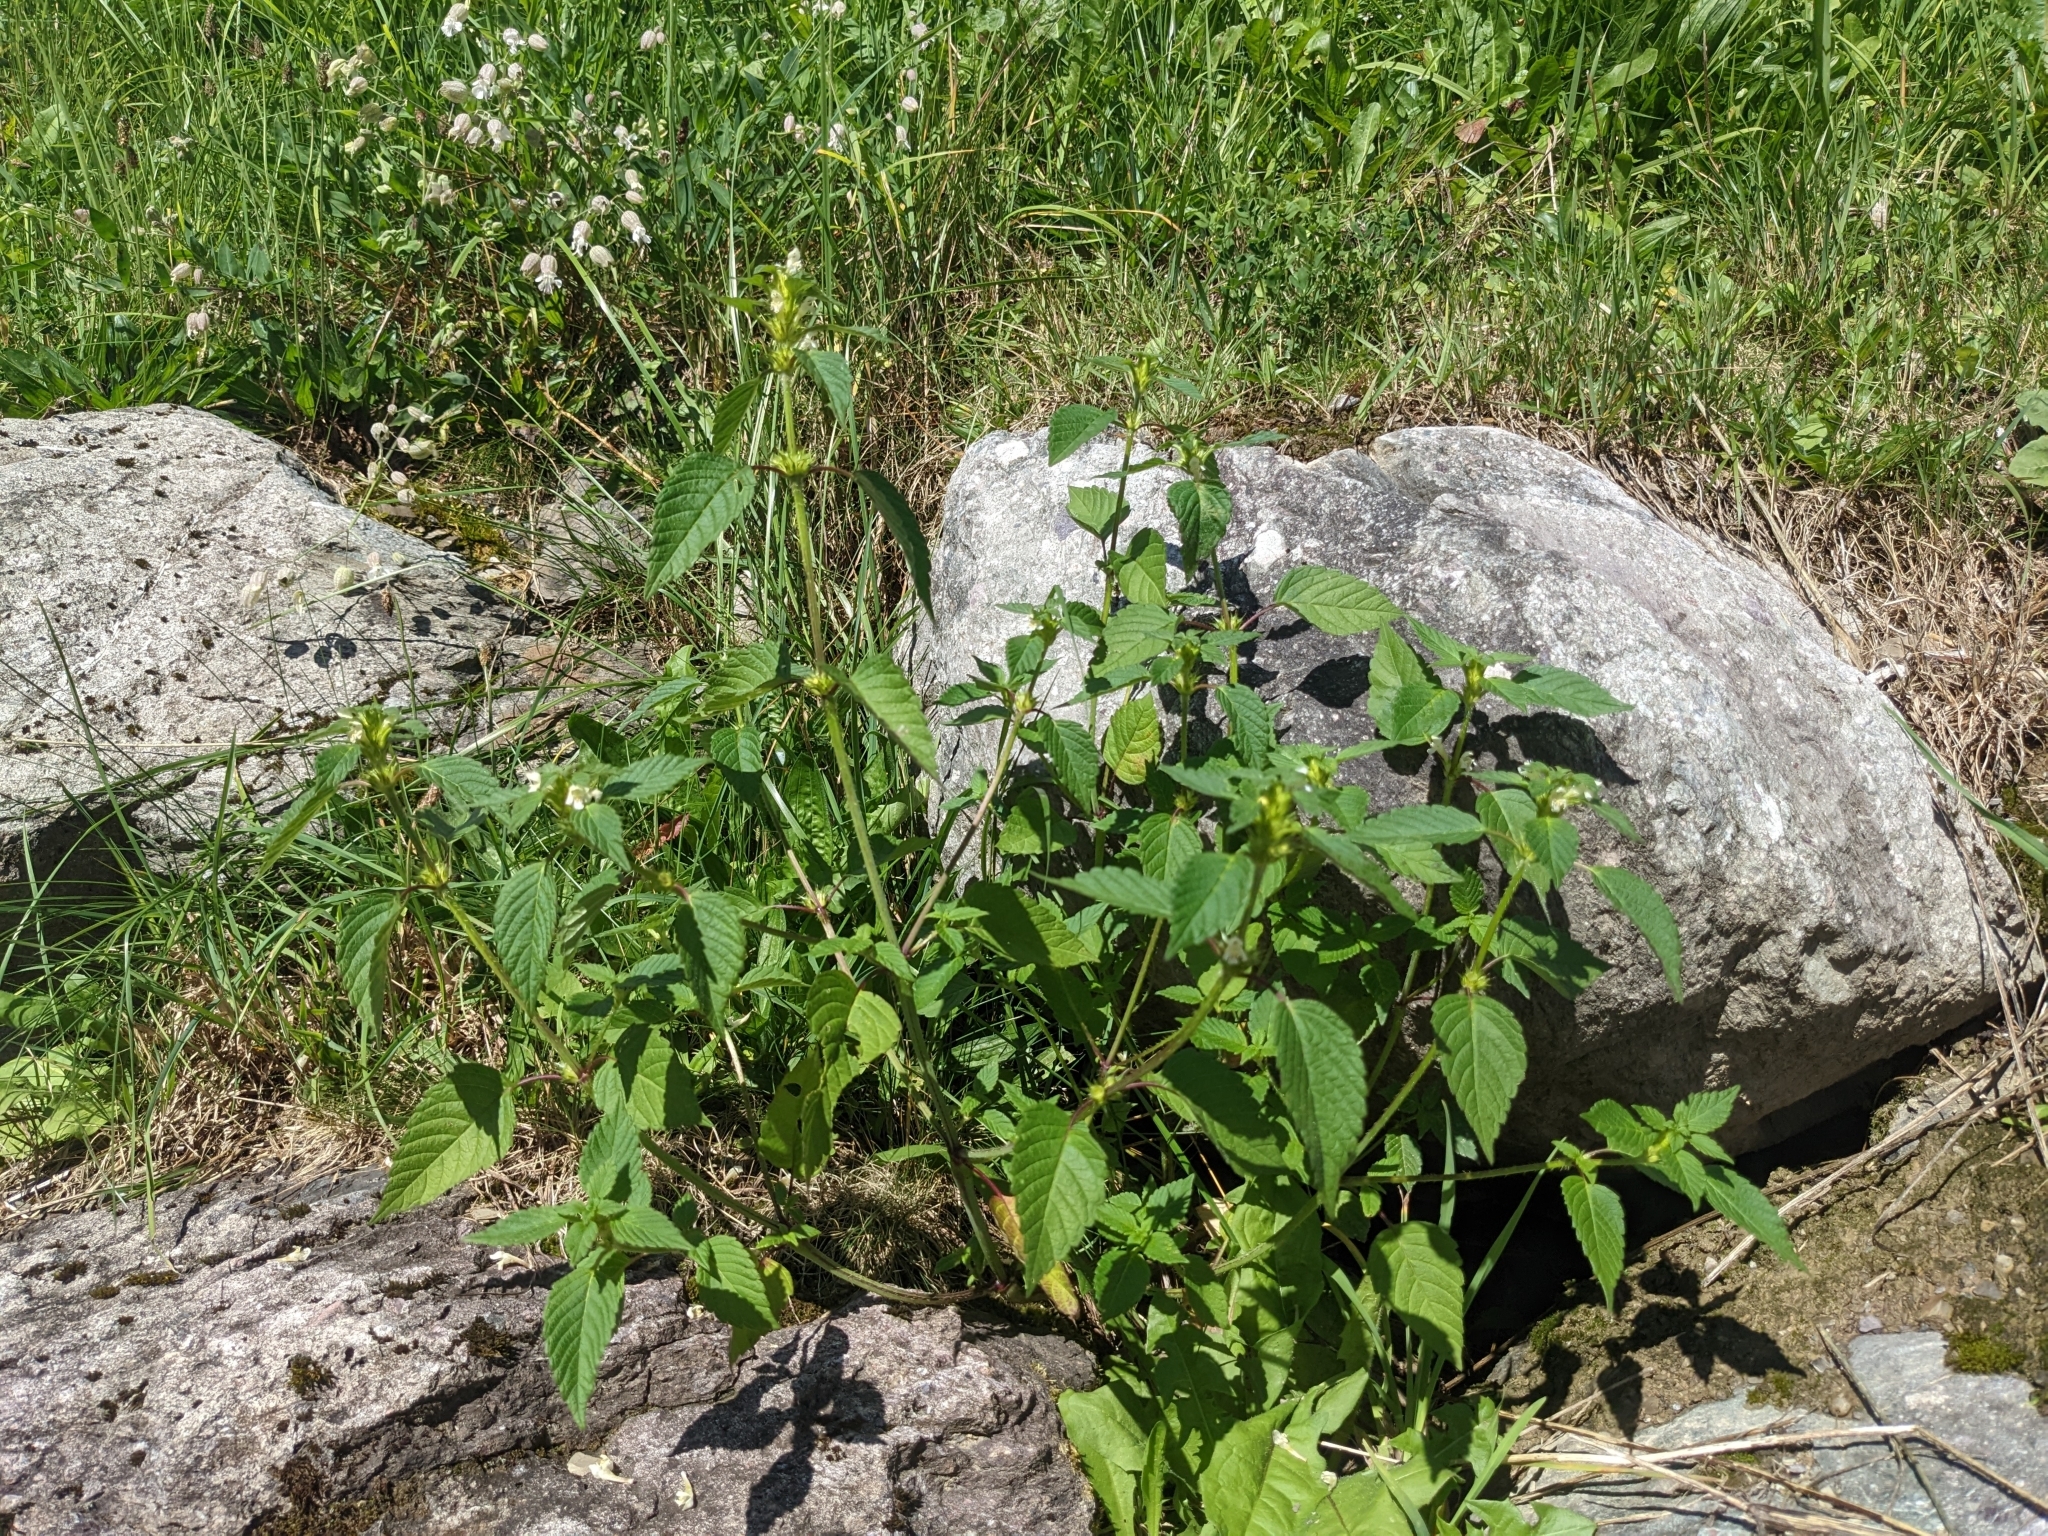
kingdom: Plantae
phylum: Tracheophyta
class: Magnoliopsida
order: Lamiales
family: Lamiaceae
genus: Galeopsis
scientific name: Galeopsis tetrahit
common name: Common hemp-nettle
